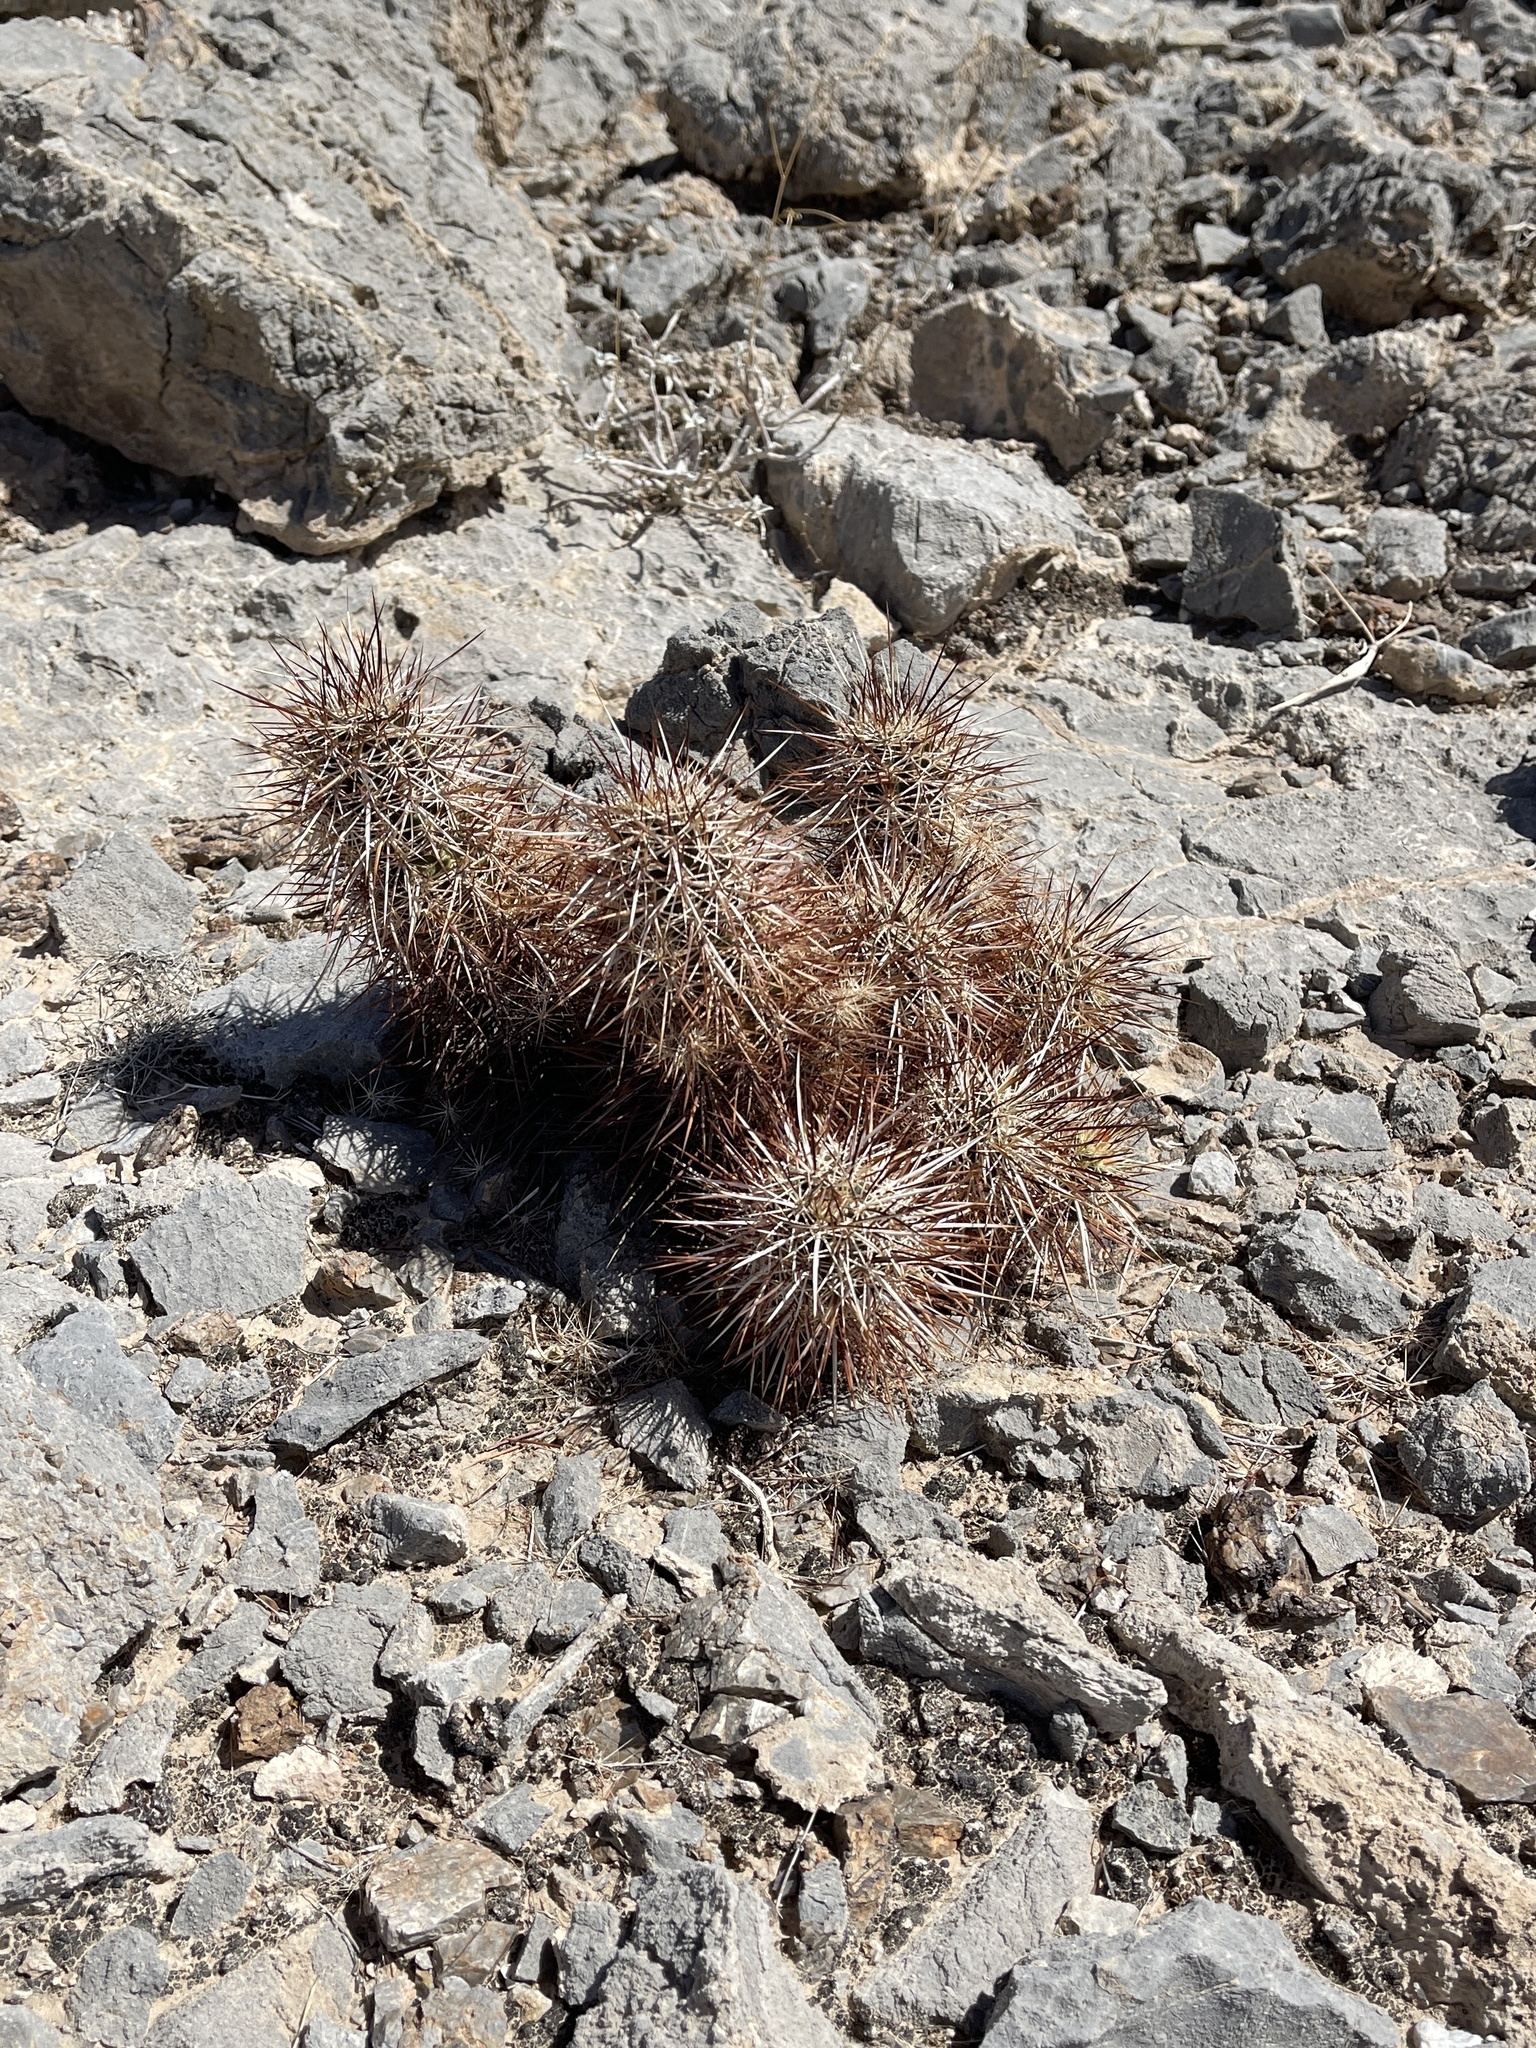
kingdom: Plantae
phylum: Tracheophyta
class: Magnoliopsida
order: Caryophyllales
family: Cactaceae
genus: Echinocereus
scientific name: Echinocereus engelmannii
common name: Engelmann's hedgehog cactus
